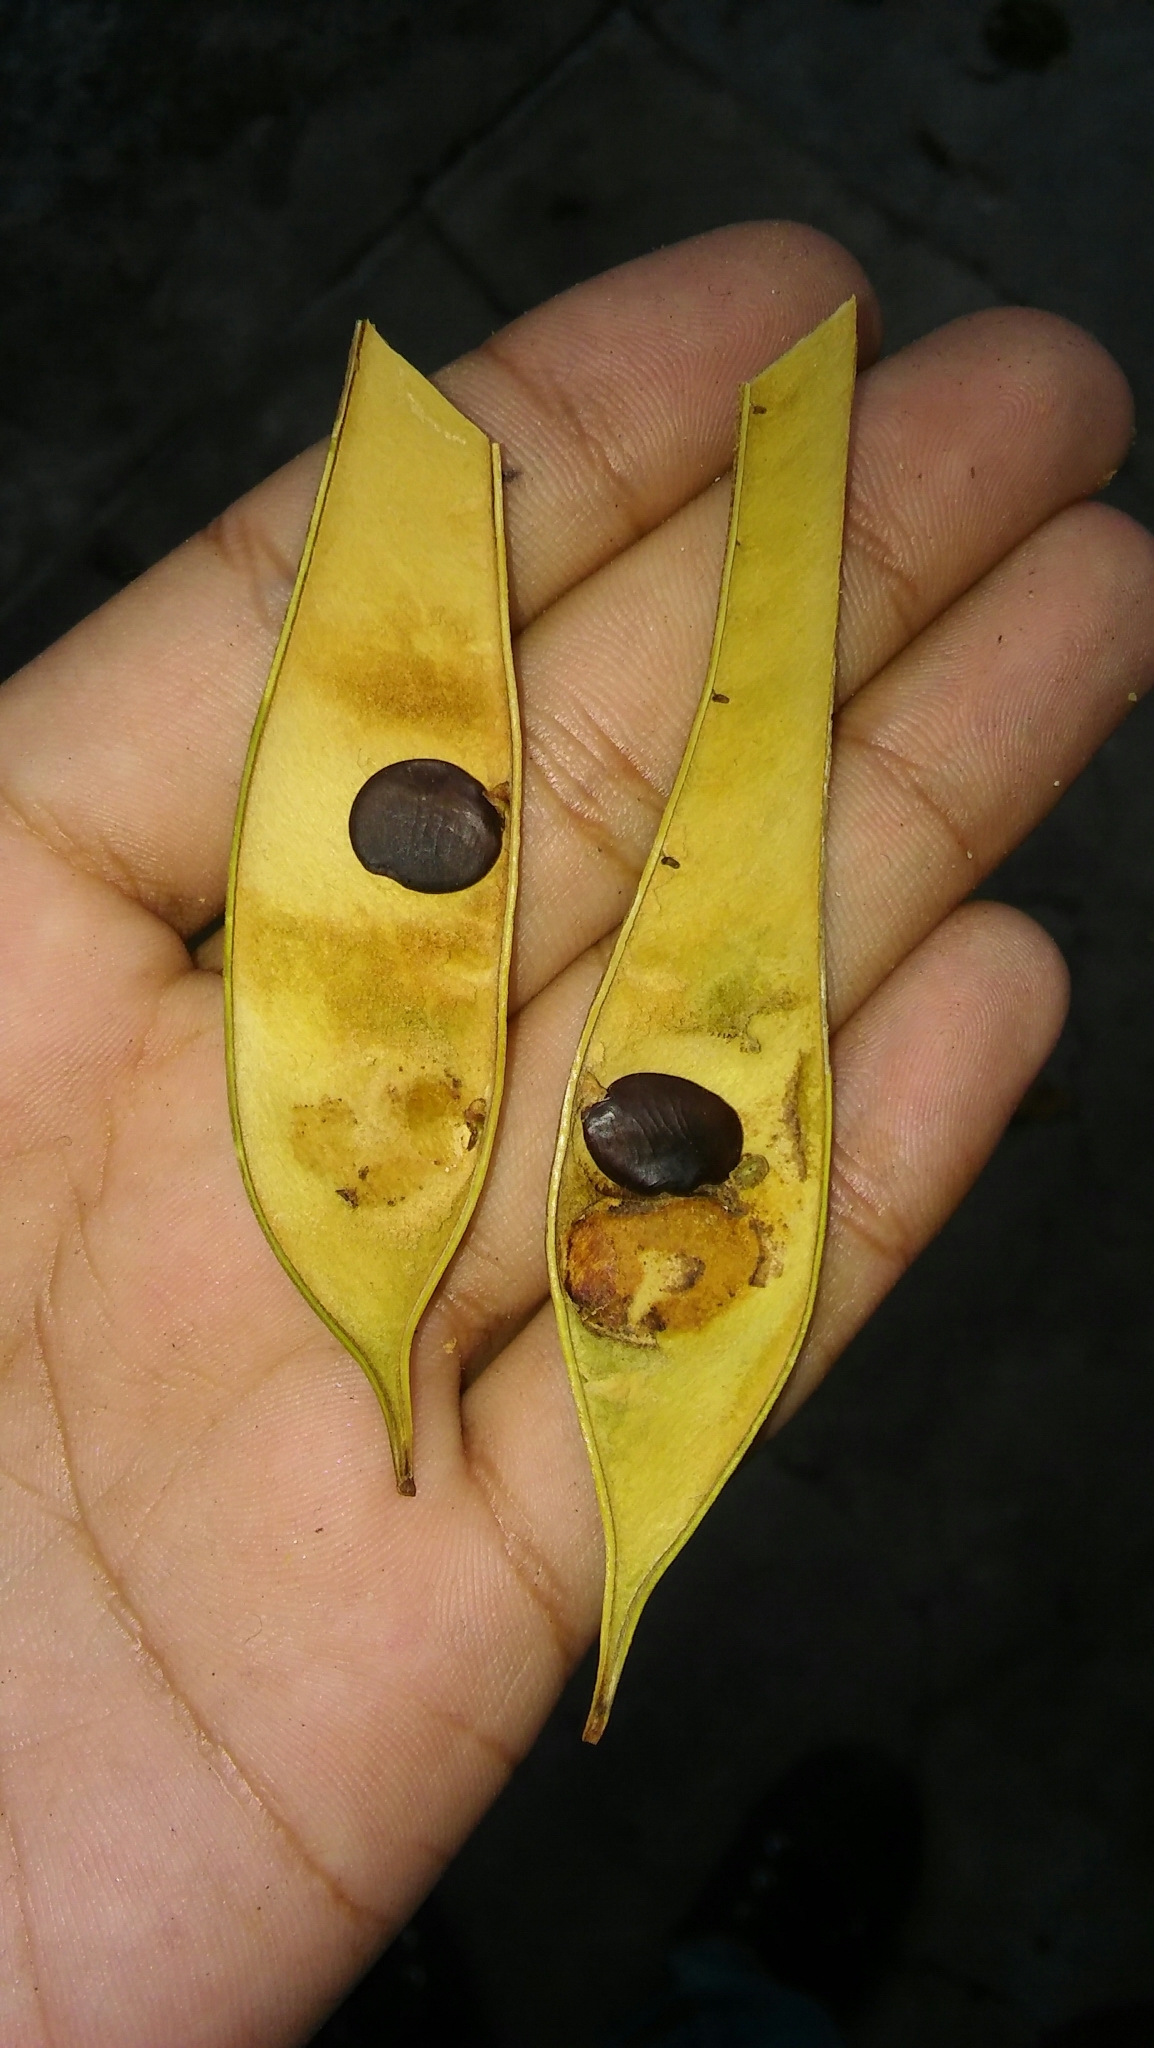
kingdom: Plantae
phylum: Tracheophyta
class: Magnoliopsida
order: Fabales
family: Fabaceae
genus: Bauhinia
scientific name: Bauhinia forficata
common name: Orchid tree
